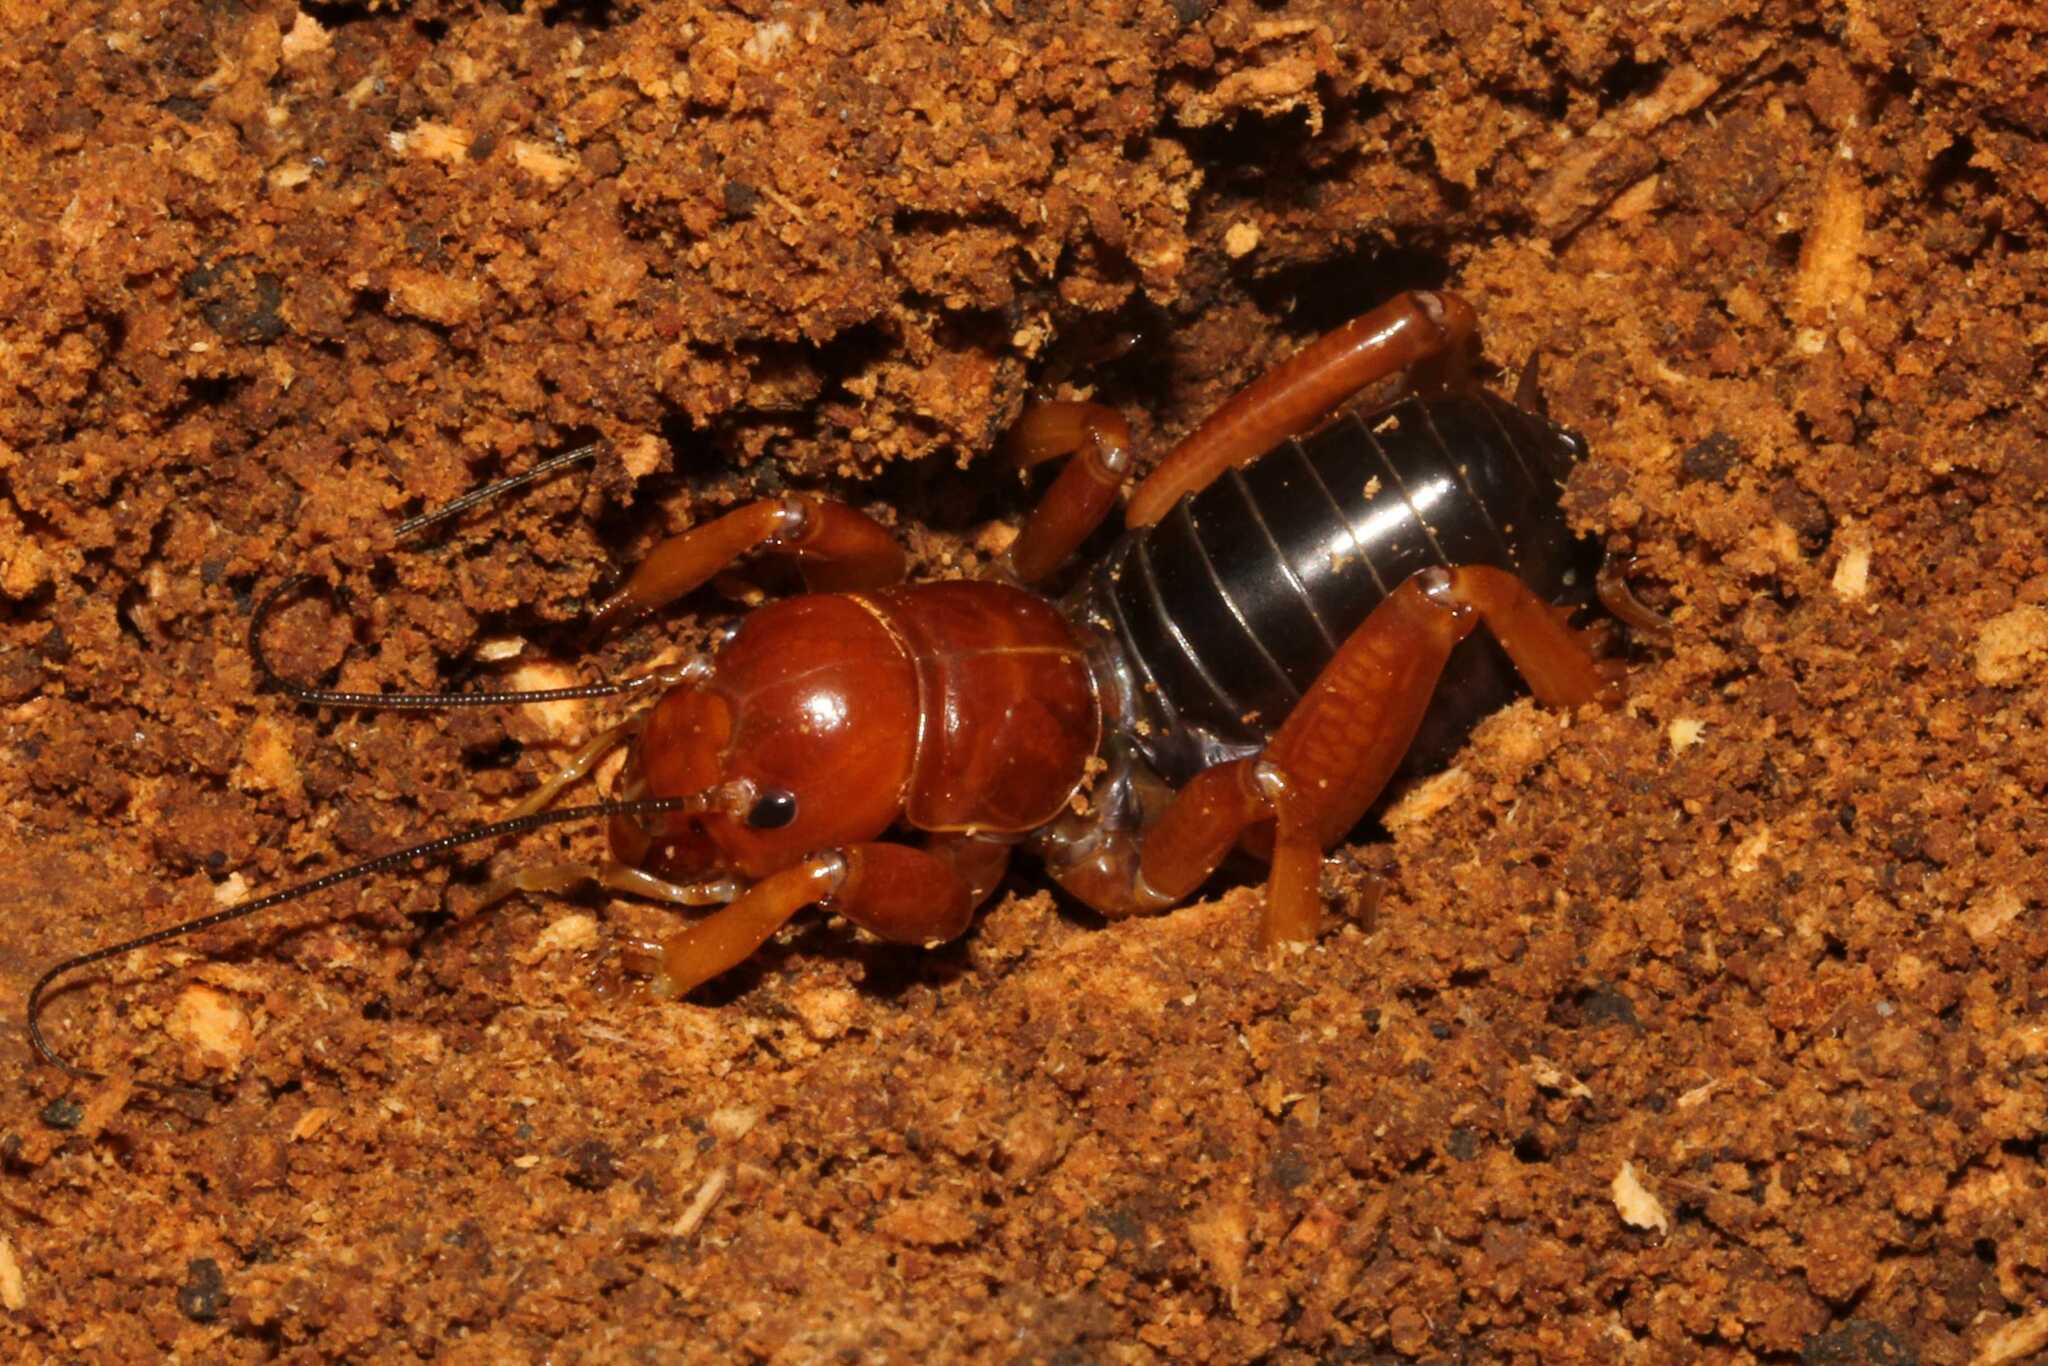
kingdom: Animalia
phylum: Arthropoda
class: Insecta
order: Orthoptera
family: Stenopelmatidae
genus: Stenopelmatus
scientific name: Stenopelmatus talpa
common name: Mole jerusalem cricket
